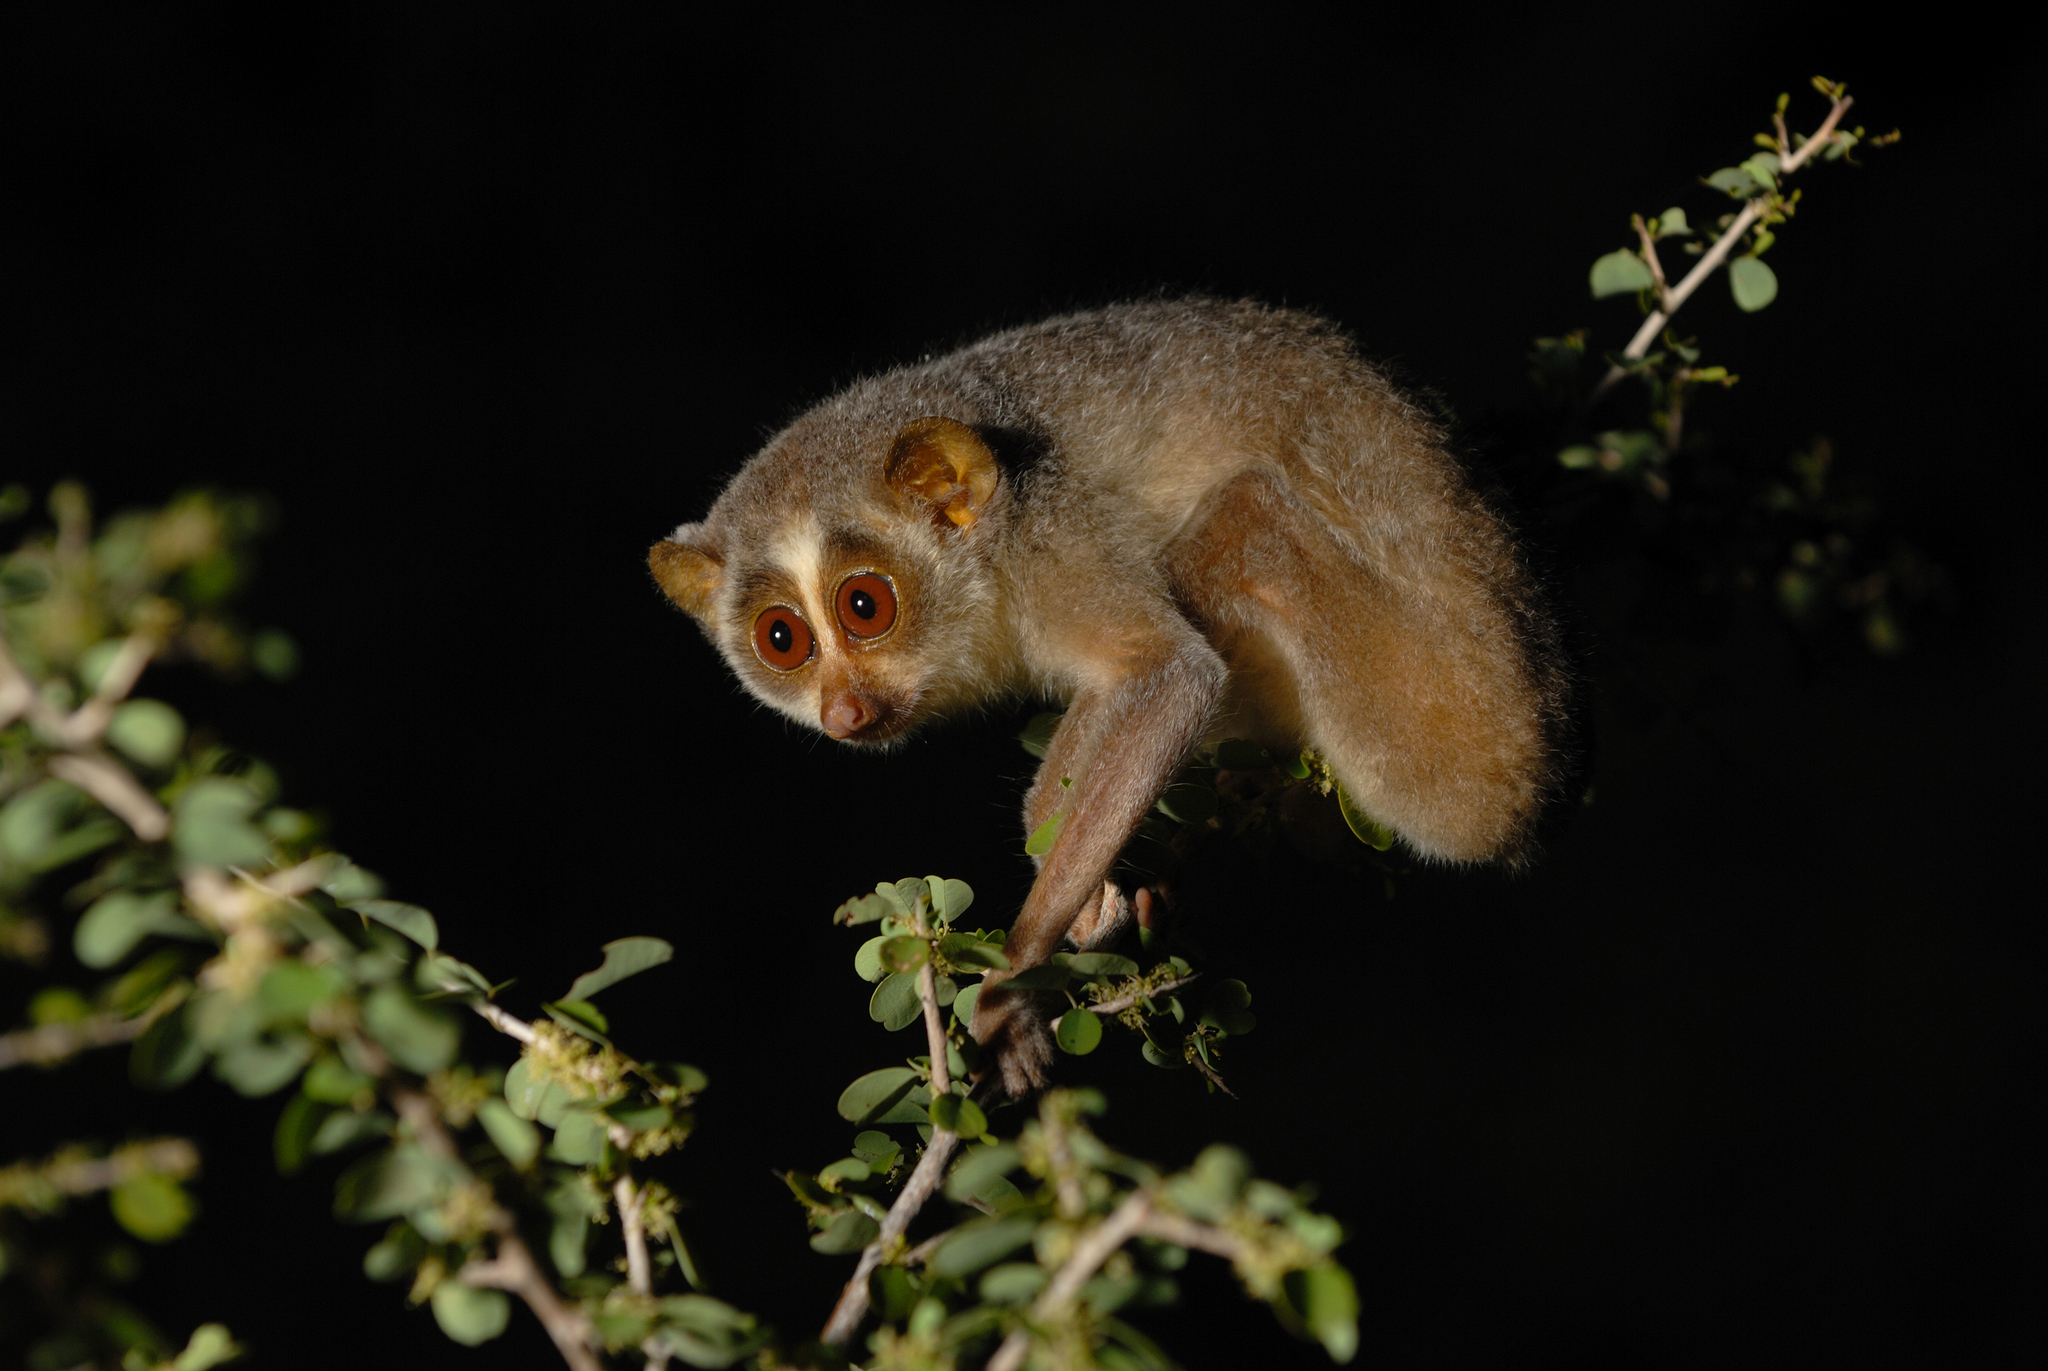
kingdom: Animalia
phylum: Chordata
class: Mammalia
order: Primates
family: Lorisidae
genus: Loris
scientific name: Loris lydekkerianus
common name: Gray slender loris
